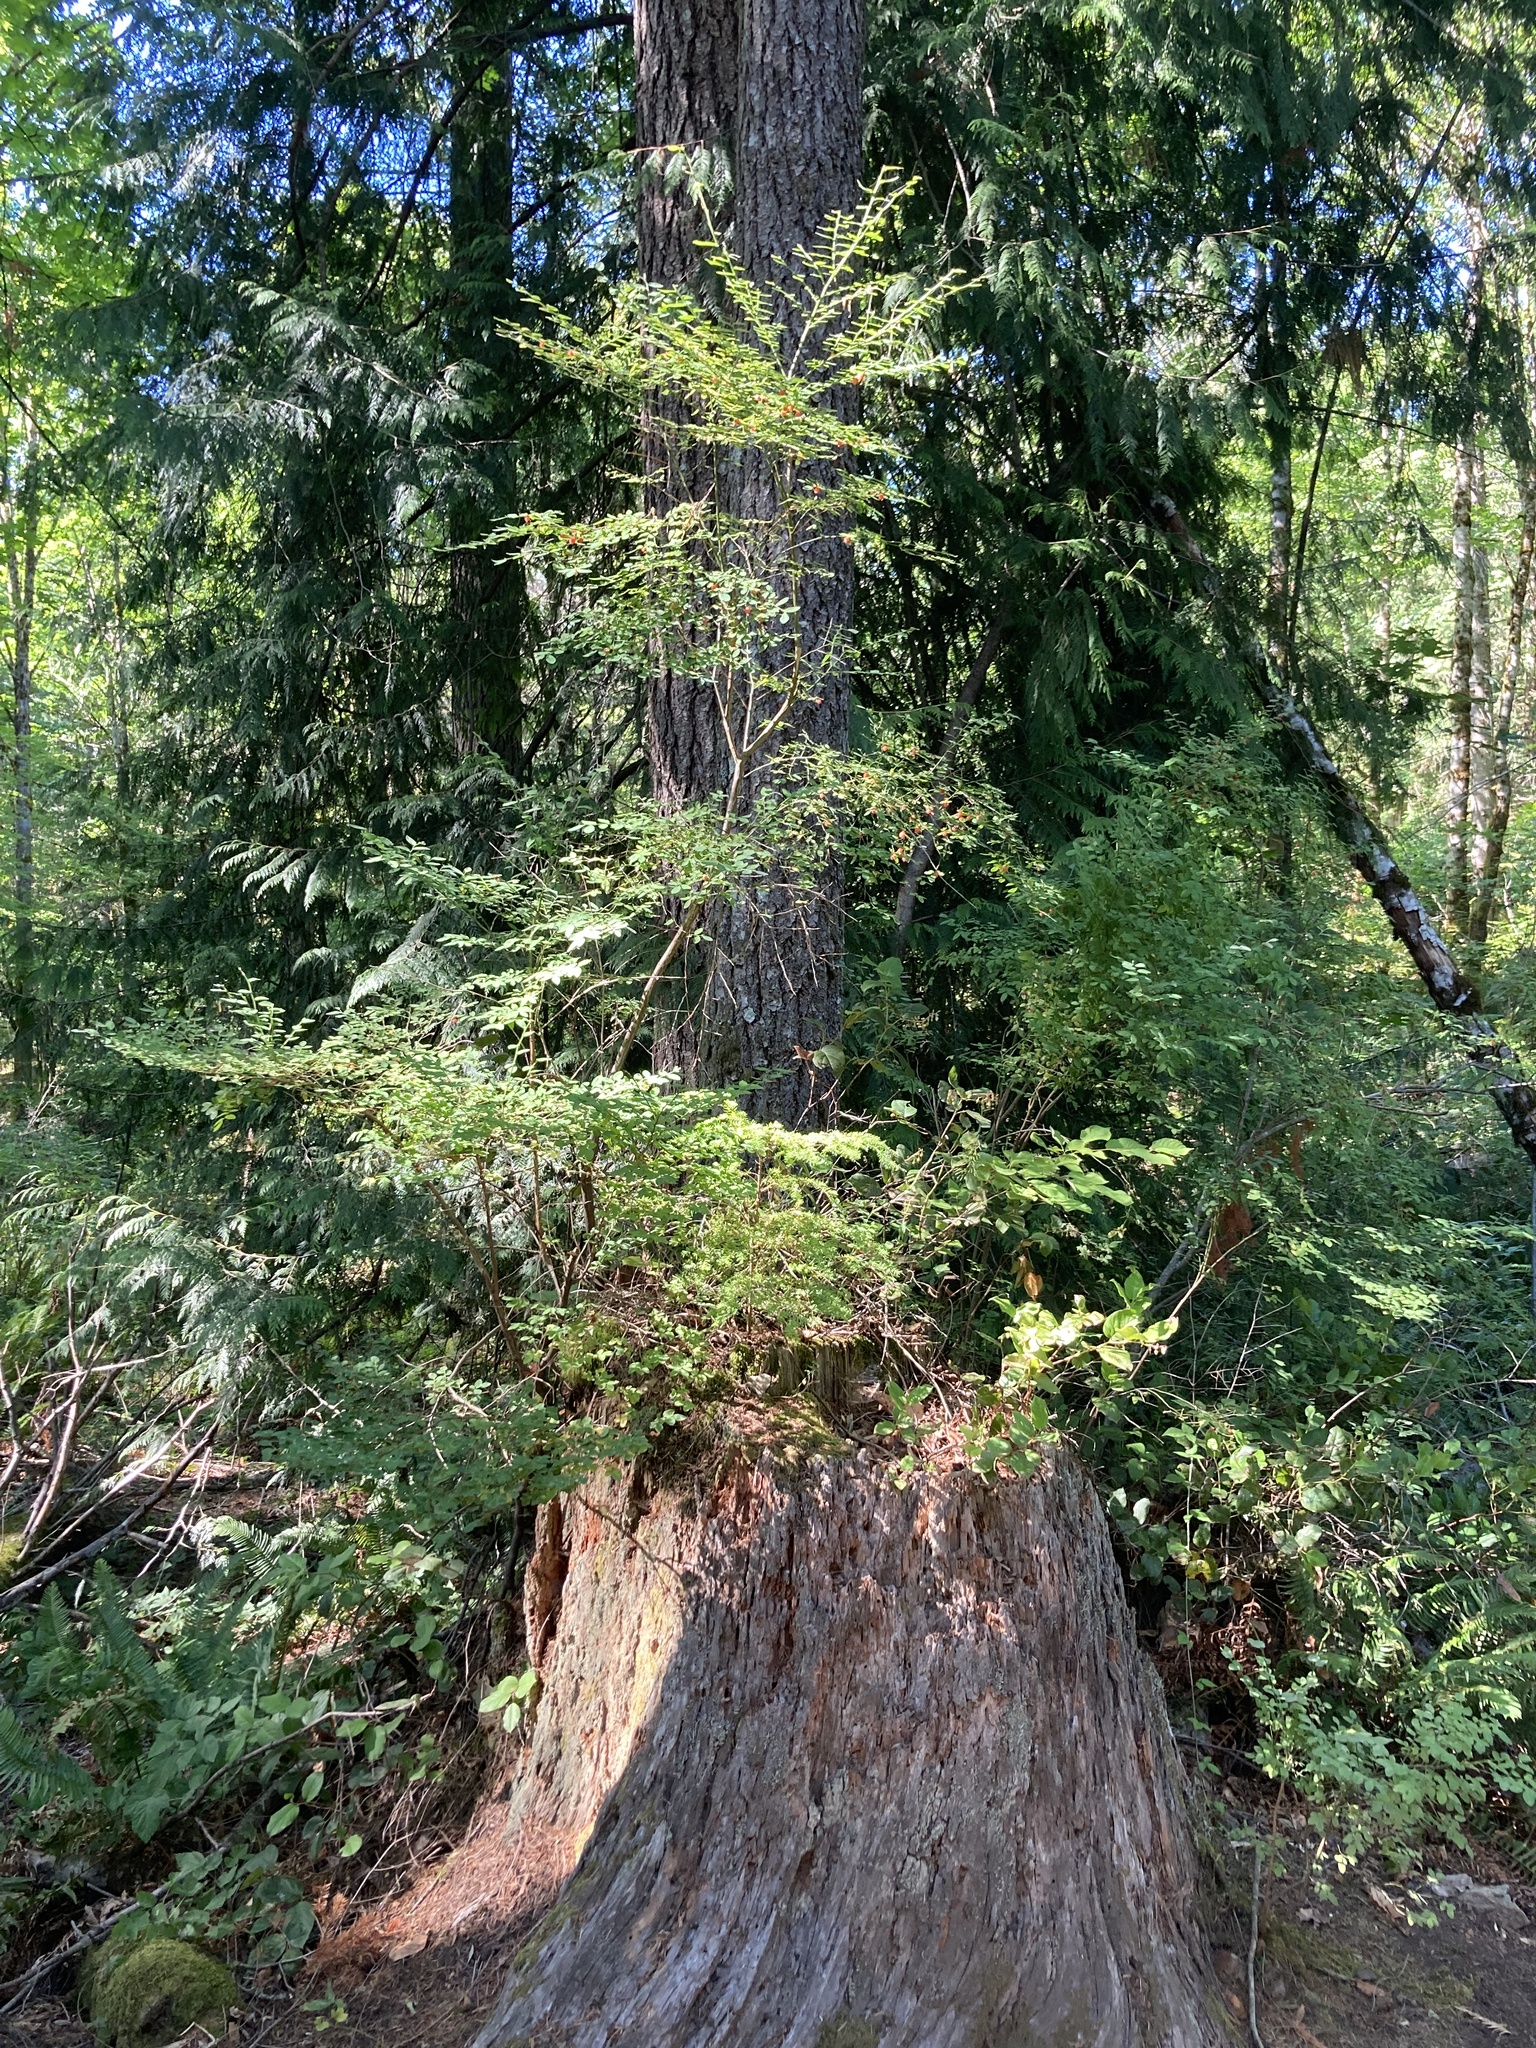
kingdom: Plantae
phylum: Tracheophyta
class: Magnoliopsida
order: Ericales
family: Ericaceae
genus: Vaccinium
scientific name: Vaccinium parvifolium
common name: Red-huckleberry
